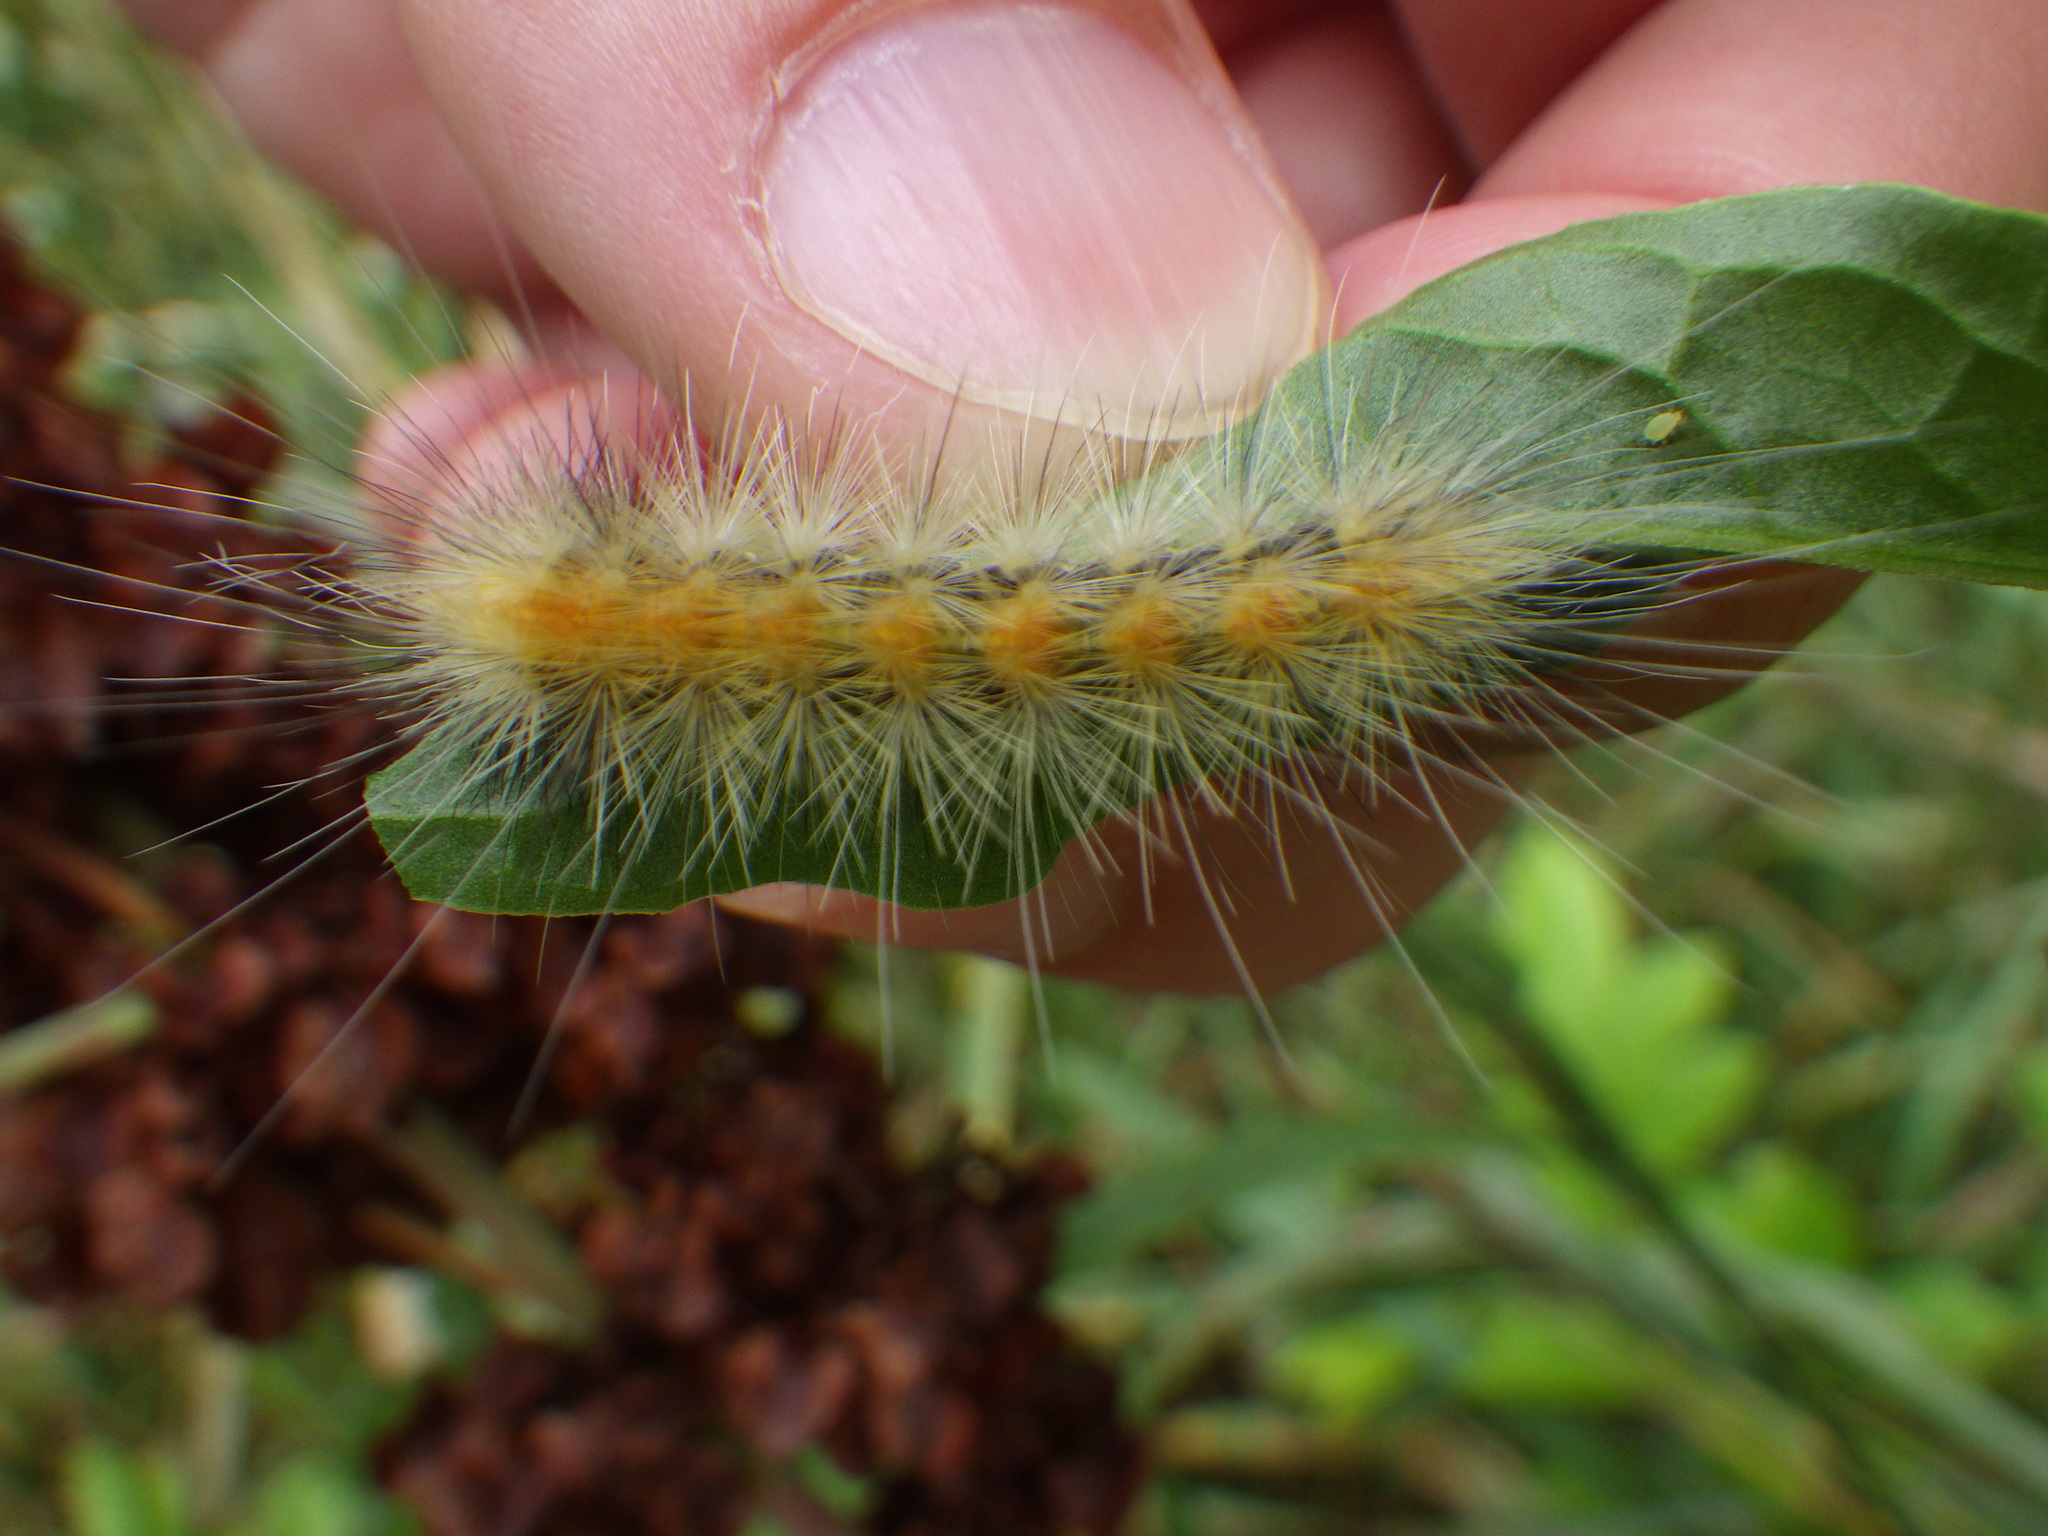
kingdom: Animalia
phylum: Arthropoda
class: Insecta
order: Lepidoptera
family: Erebidae
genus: Spilosoma
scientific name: Spilosoma virginica
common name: Virginia tiger moth
